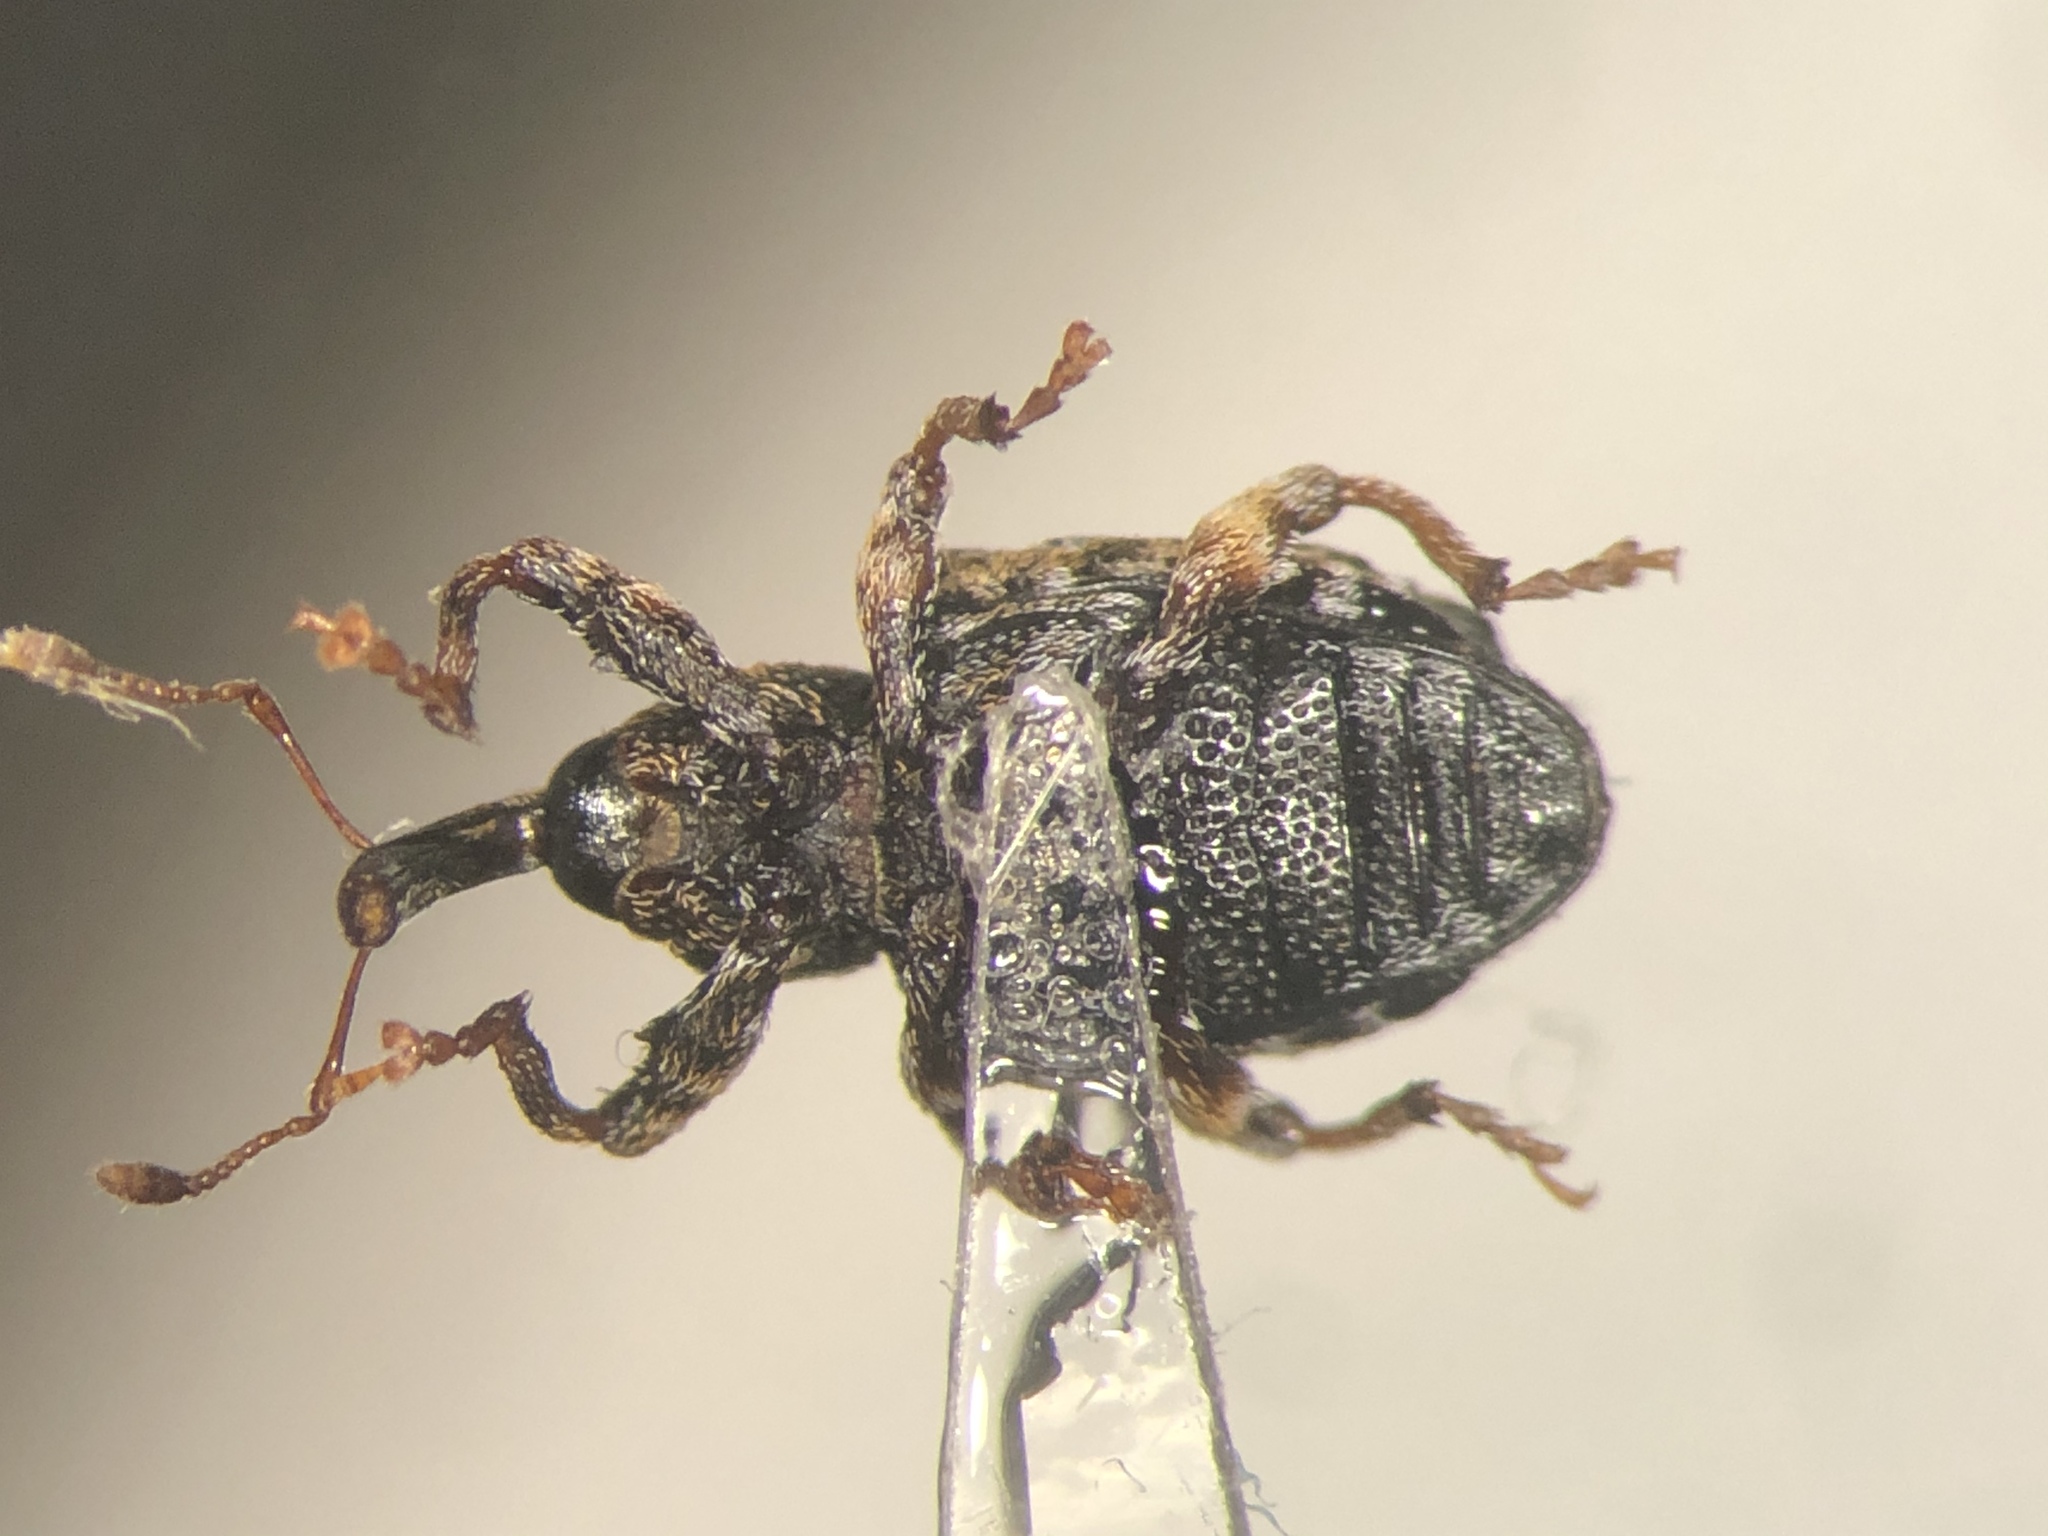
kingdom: Animalia
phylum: Arthropoda
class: Insecta
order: Coleoptera
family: Curculionidae
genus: Conotrachelus
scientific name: Conotrachelus corni
